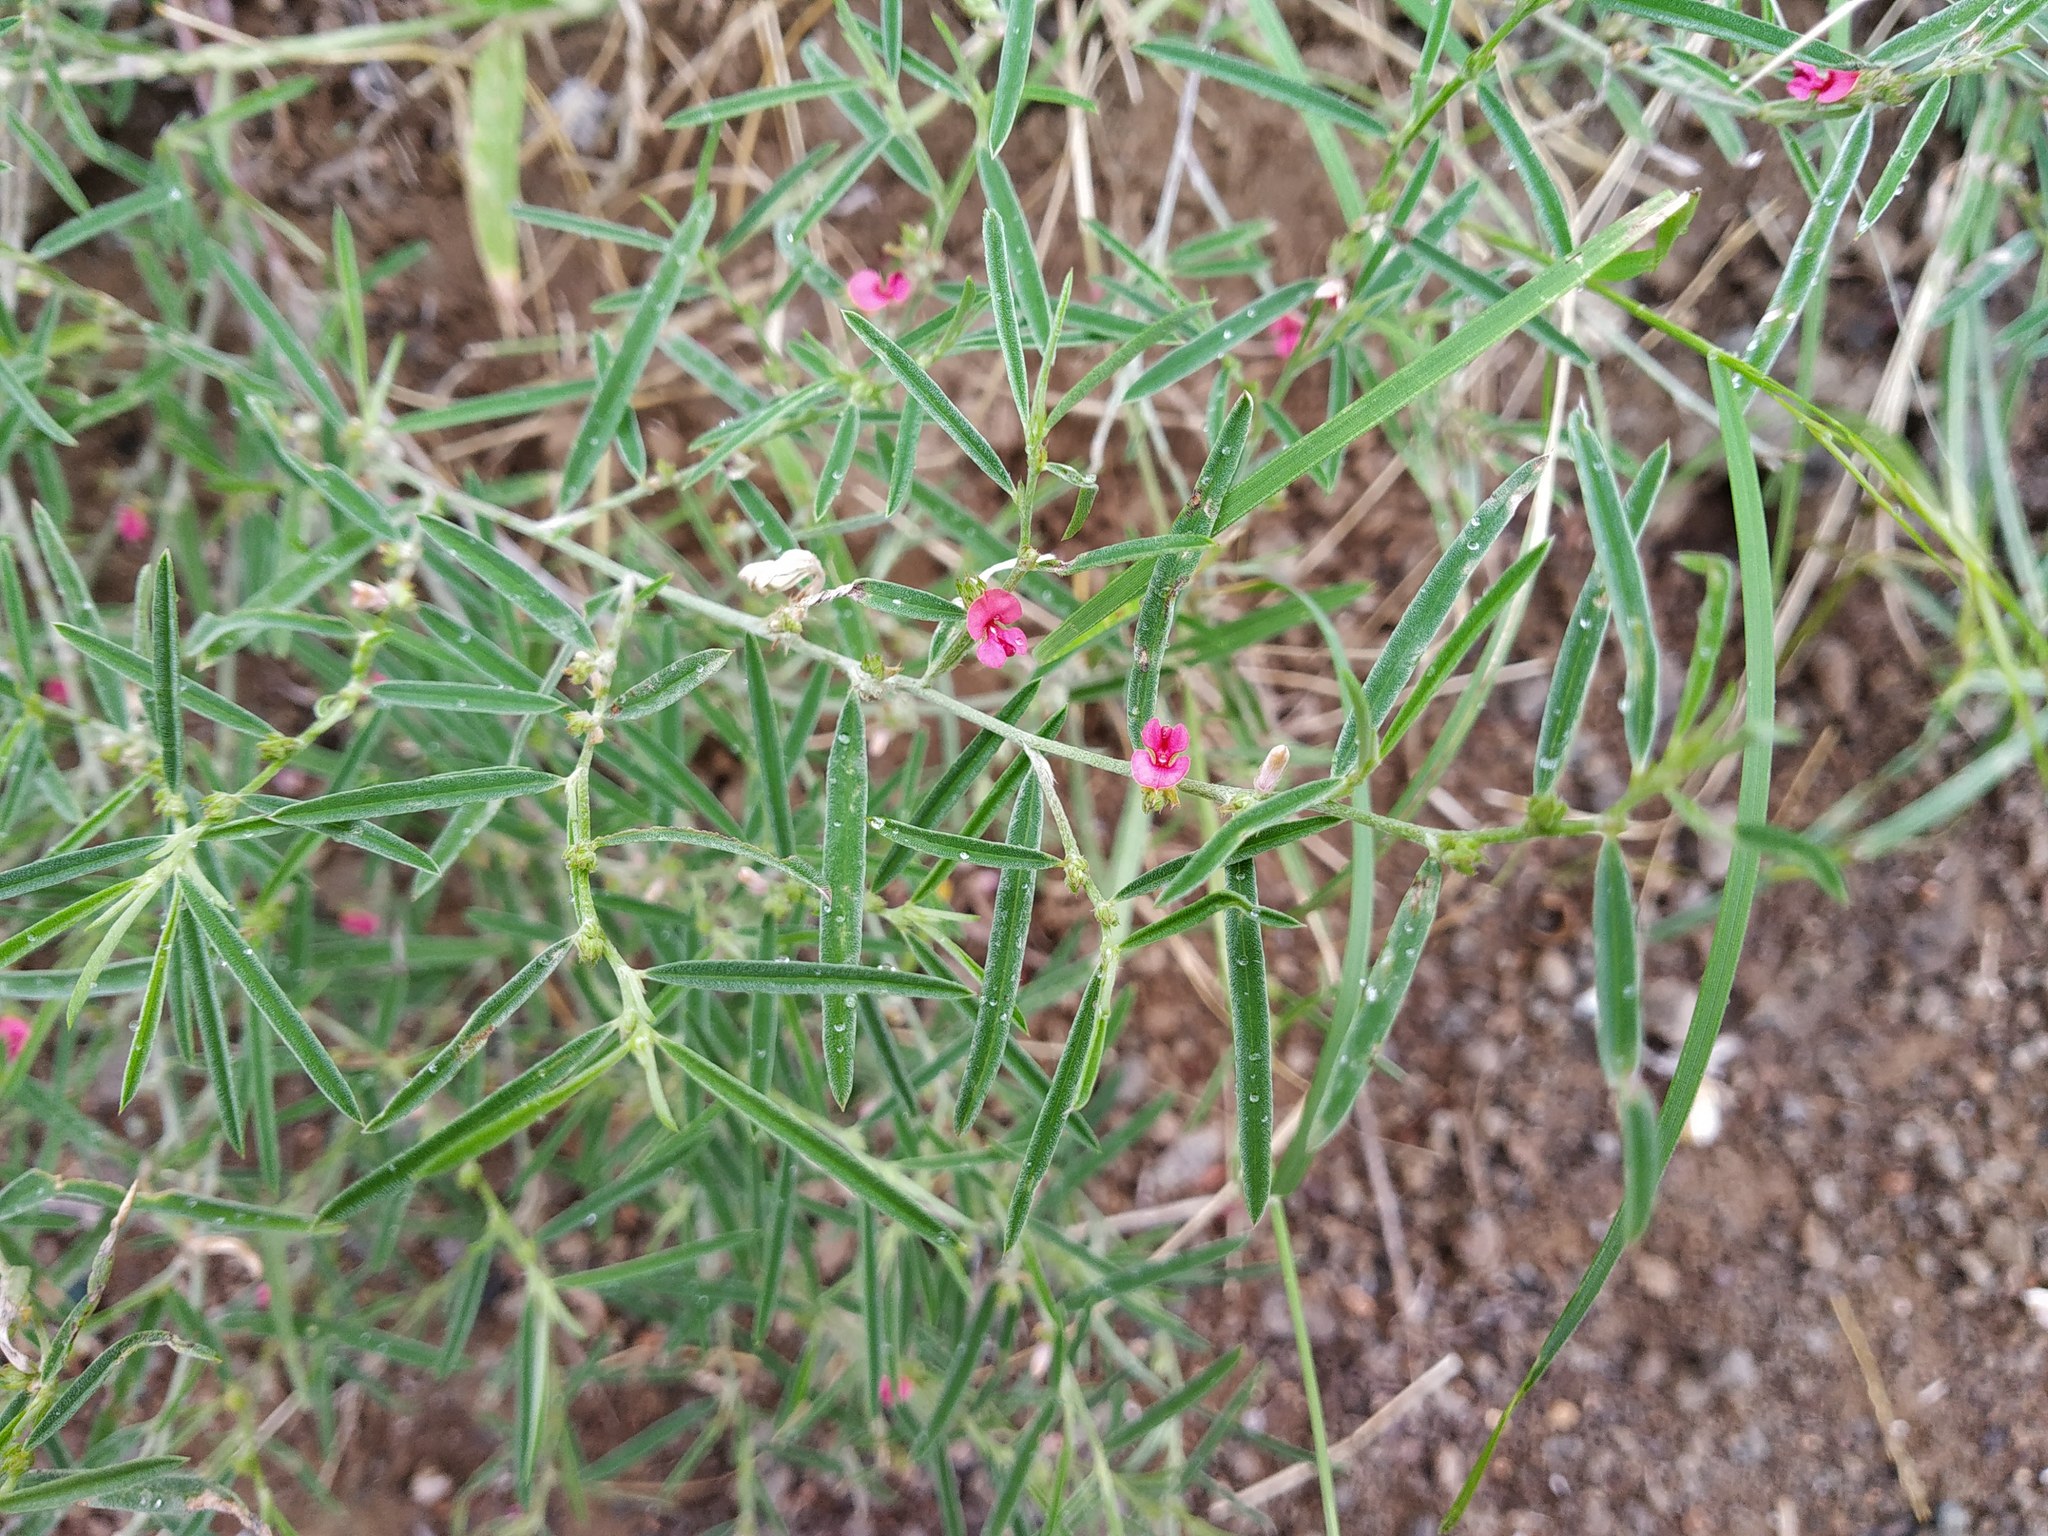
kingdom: Plantae
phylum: Tracheophyta
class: Magnoliopsida
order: Fabales
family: Fabaceae
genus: Indigofera
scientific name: Indigofera linifolia
